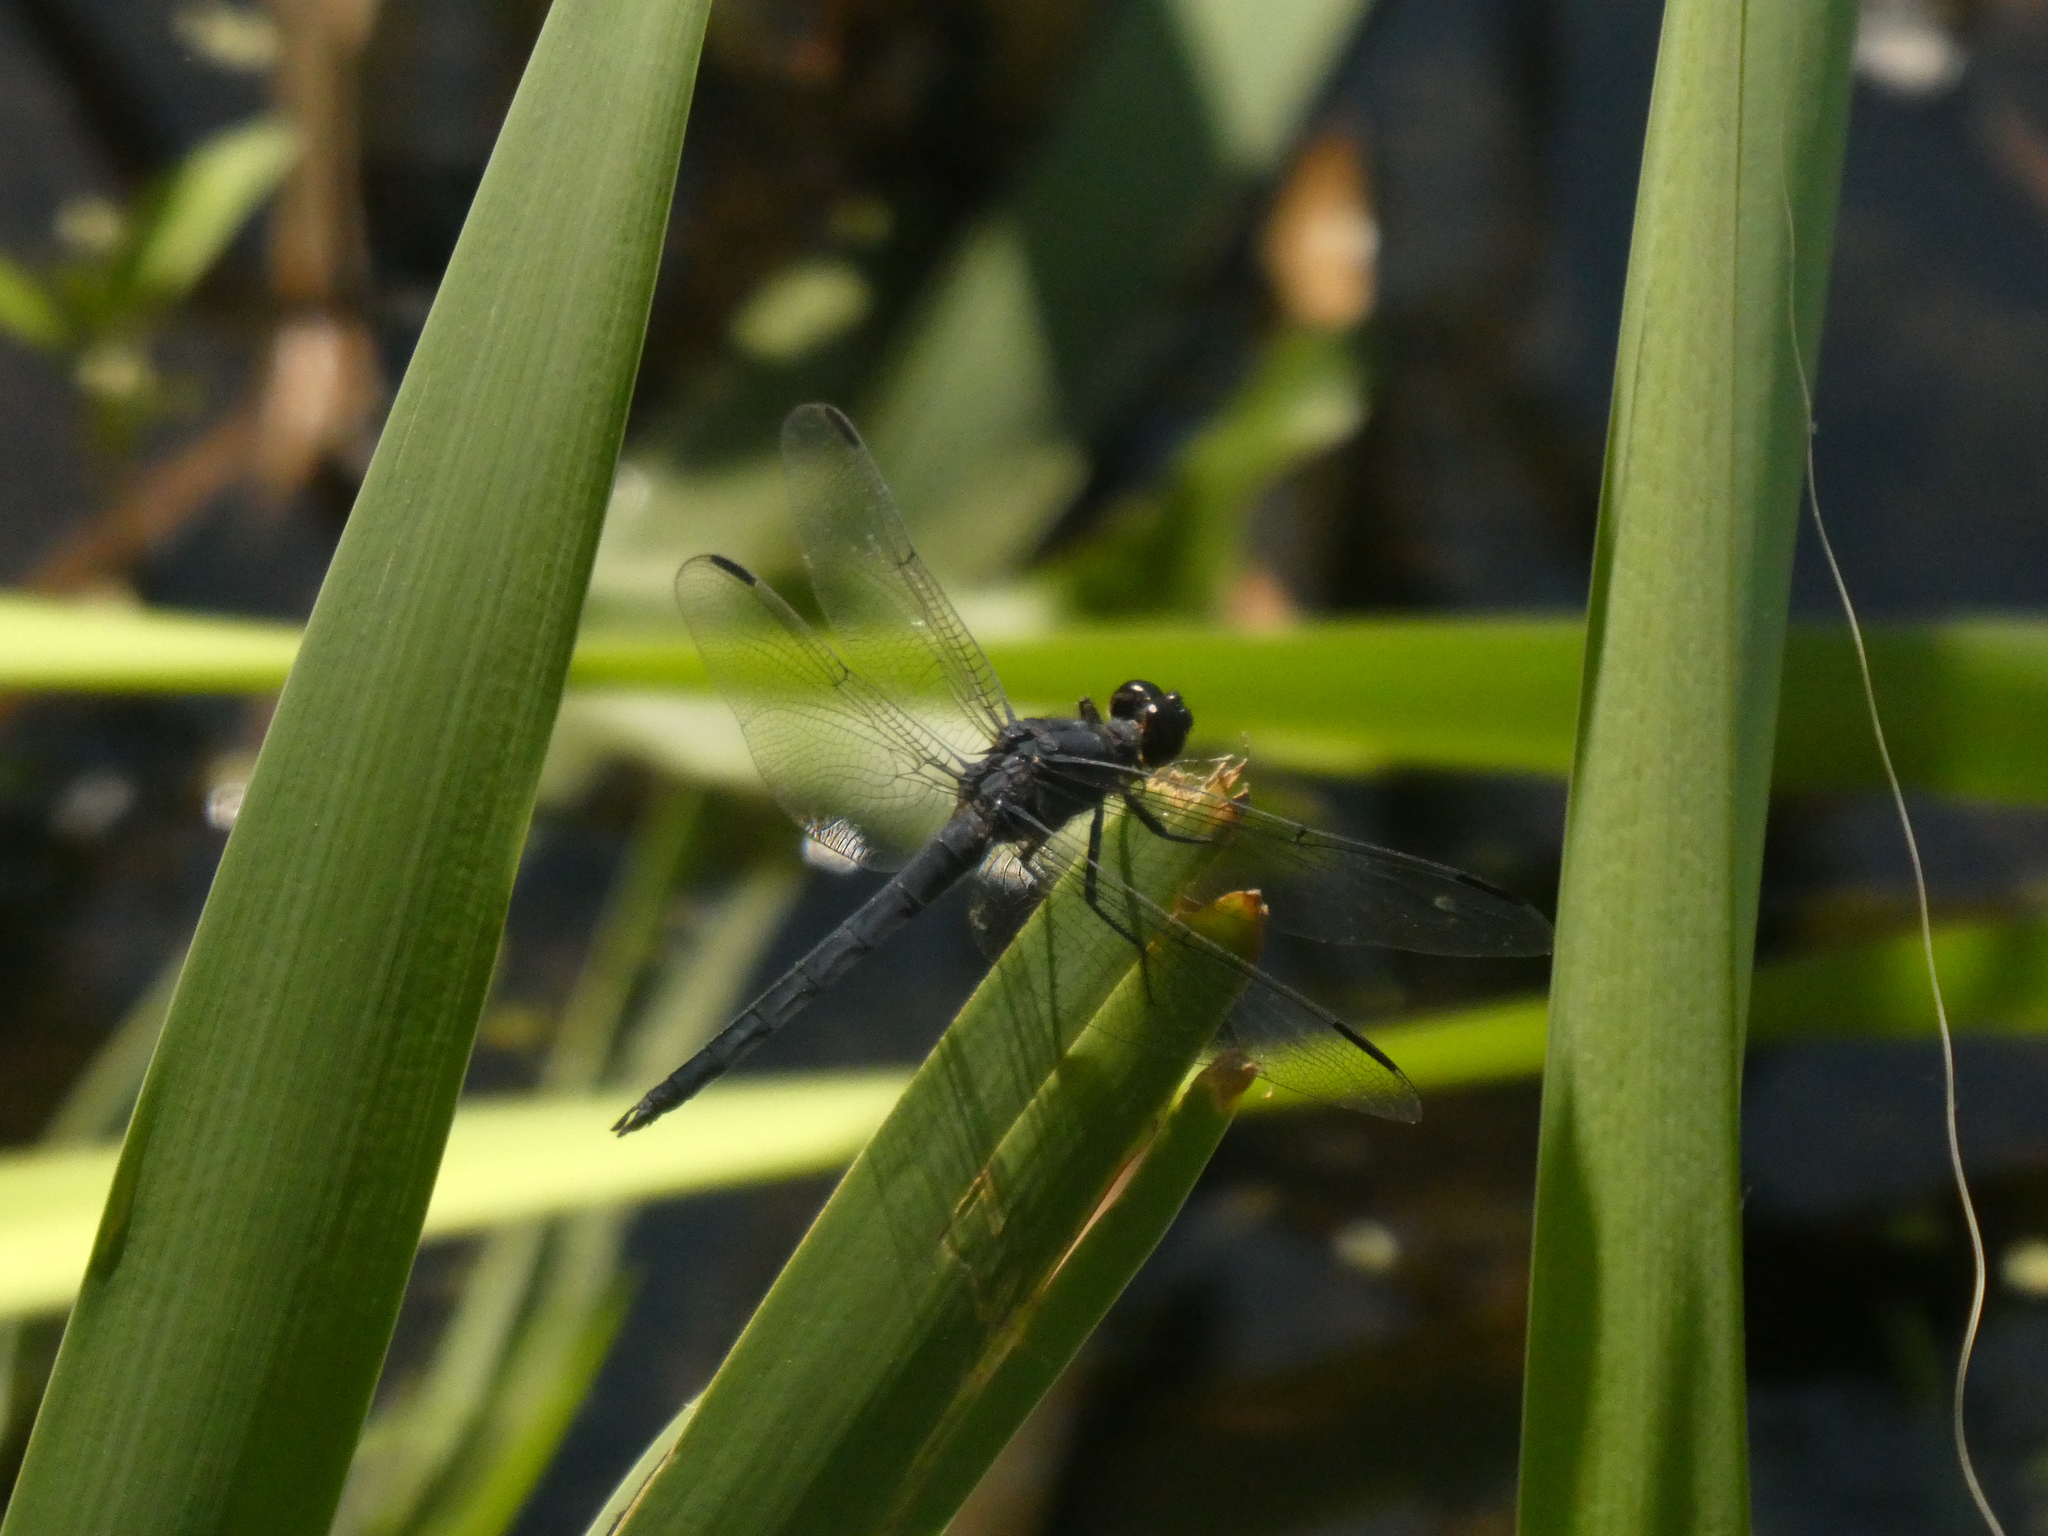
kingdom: Animalia
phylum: Arthropoda
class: Insecta
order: Odonata
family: Libellulidae
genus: Libellula
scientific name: Libellula incesta
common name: Slaty skimmer
